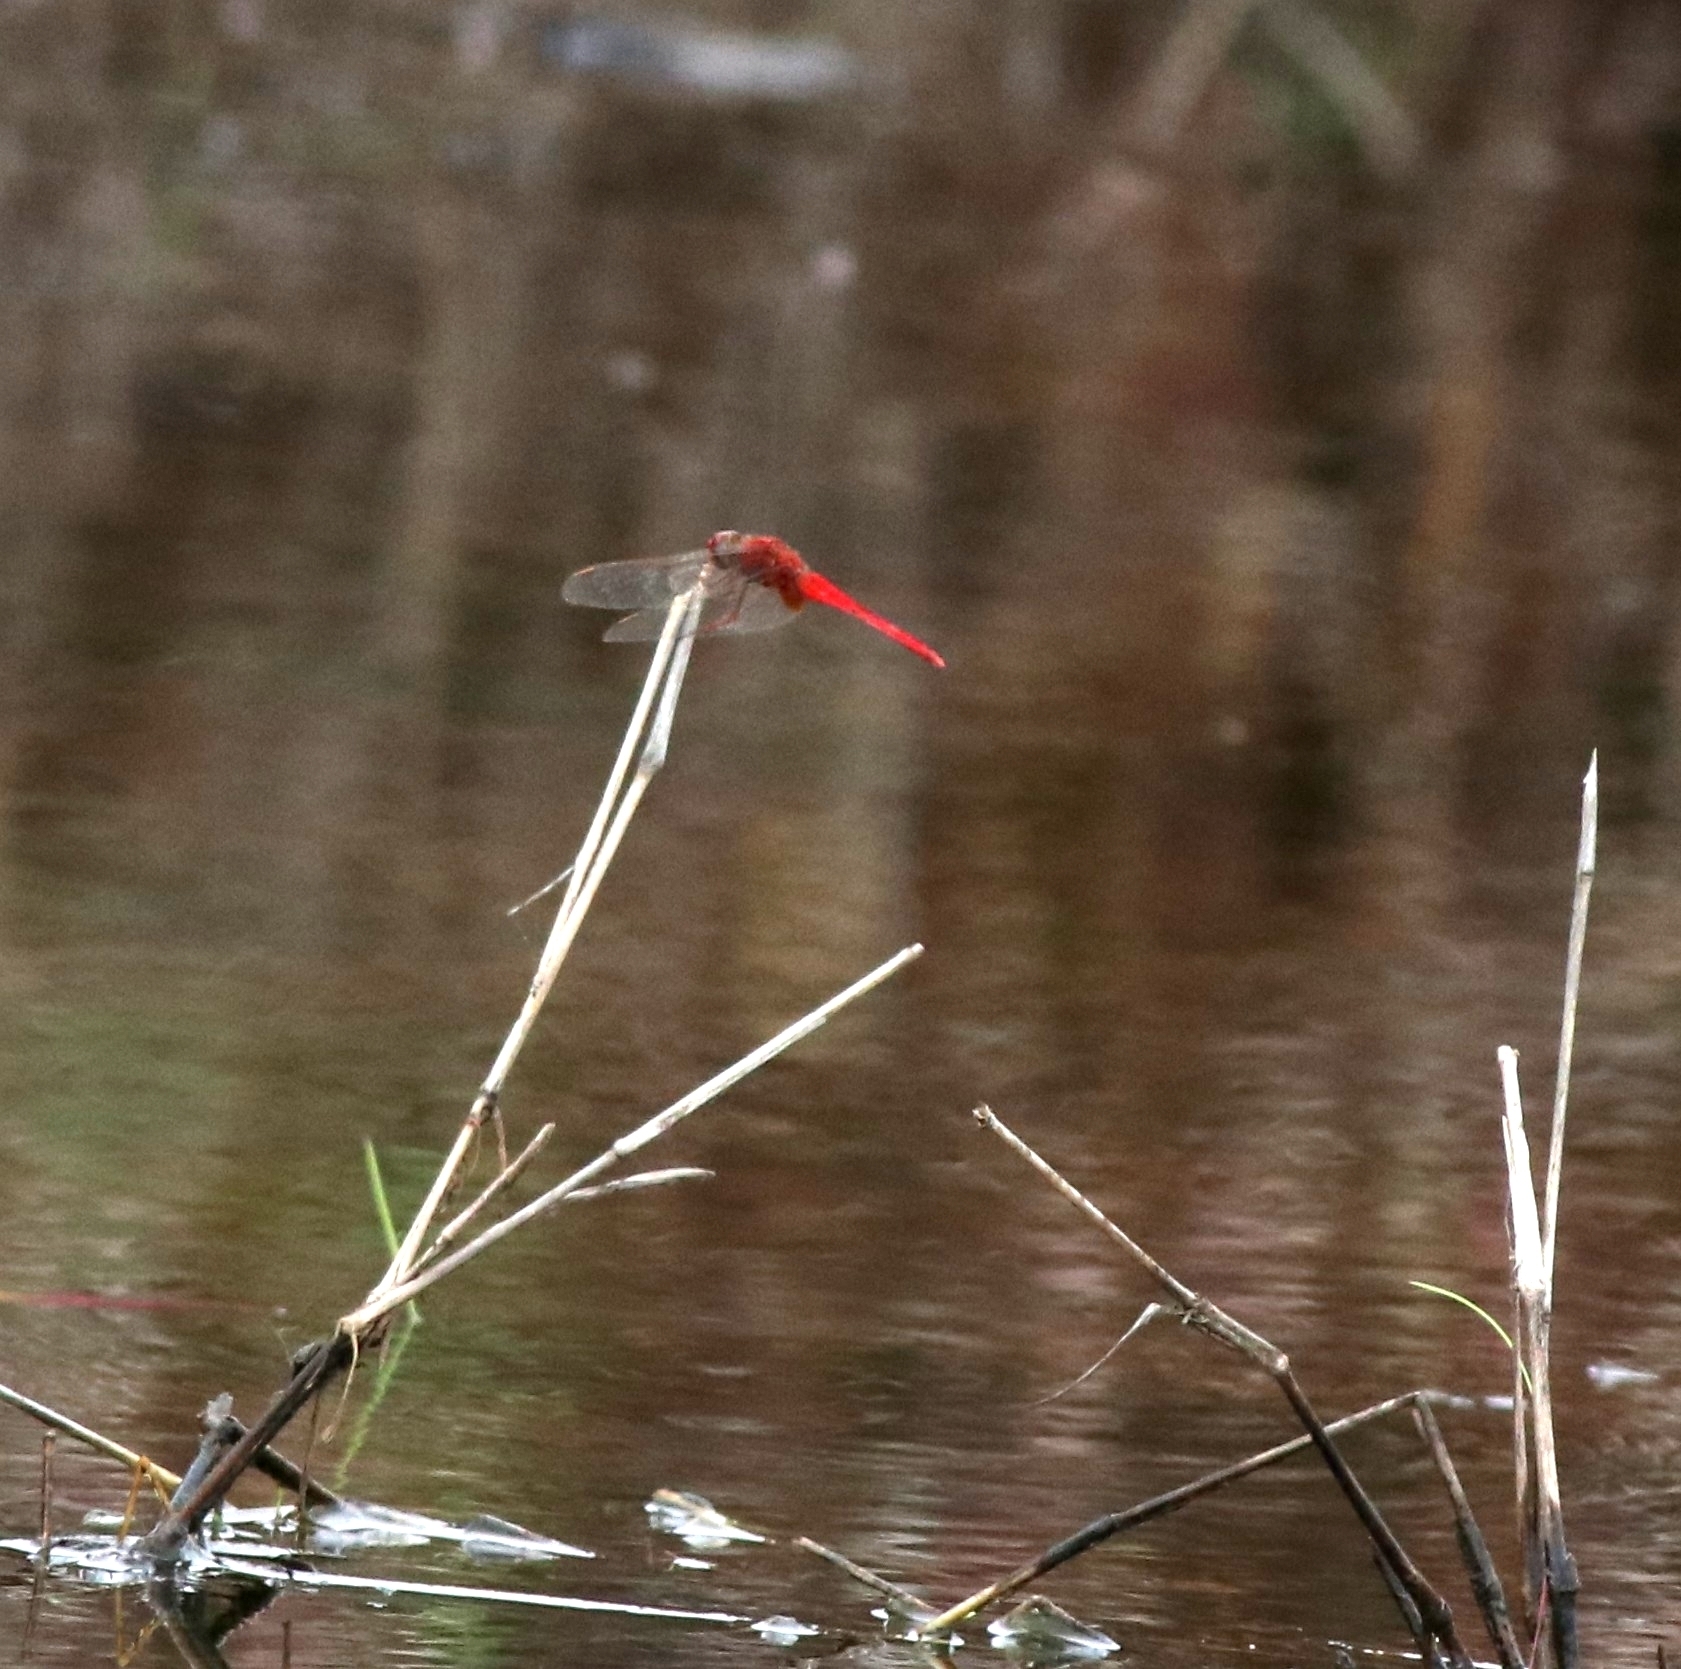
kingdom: Animalia
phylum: Arthropoda
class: Insecta
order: Odonata
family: Libellulidae
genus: Crocothemis
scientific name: Crocothemis servilia
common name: Scarlet skimmer
